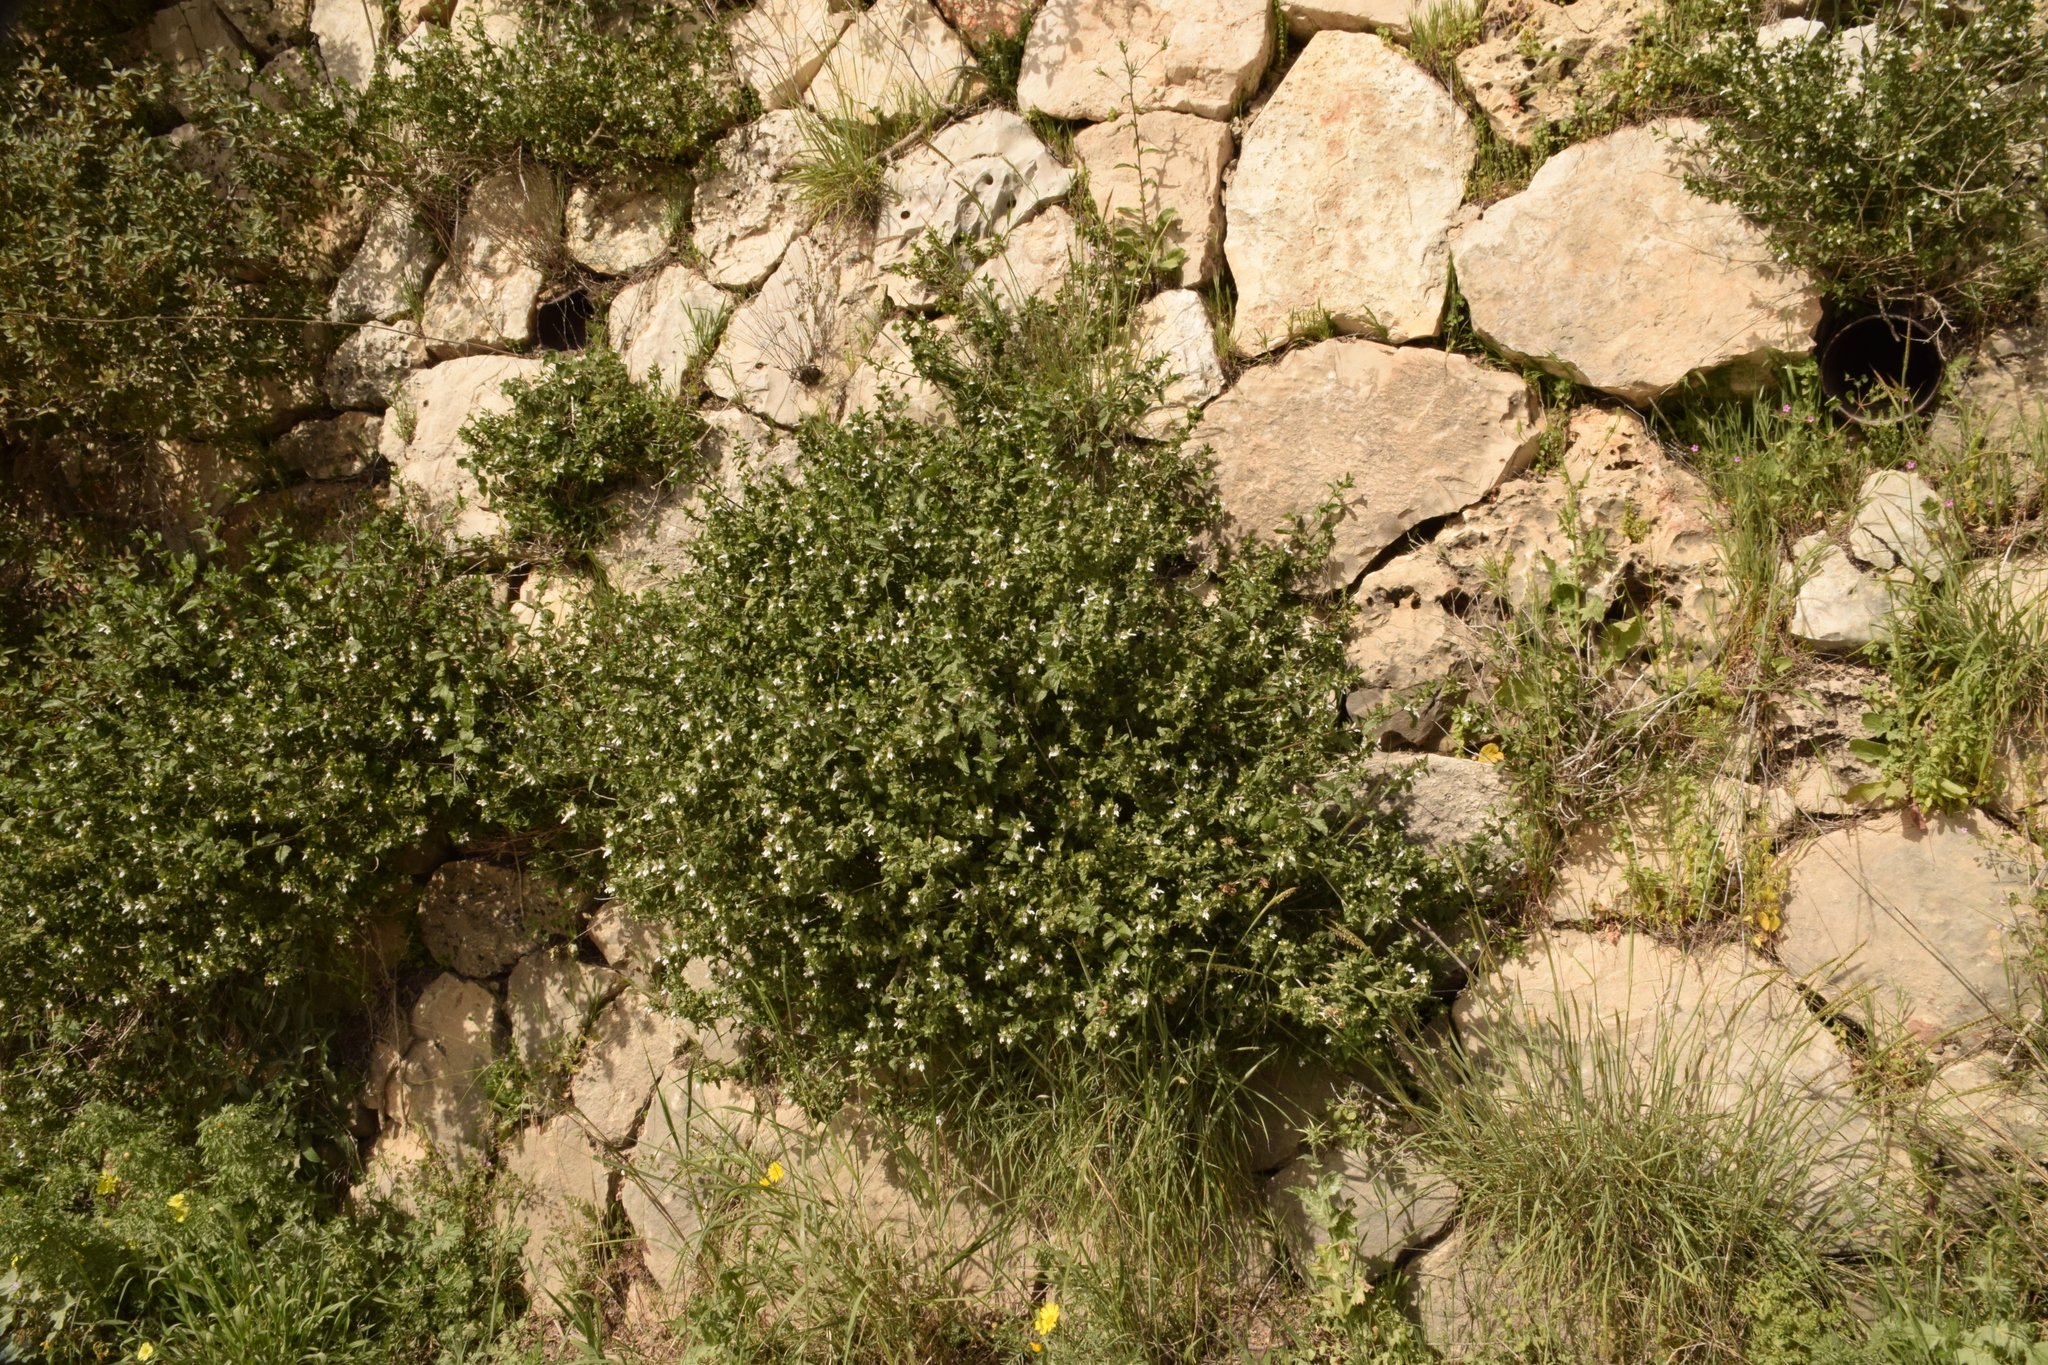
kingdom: Plantae
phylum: Tracheophyta
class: Magnoliopsida
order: Lamiales
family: Lamiaceae
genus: Prasium
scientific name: Prasium majus
